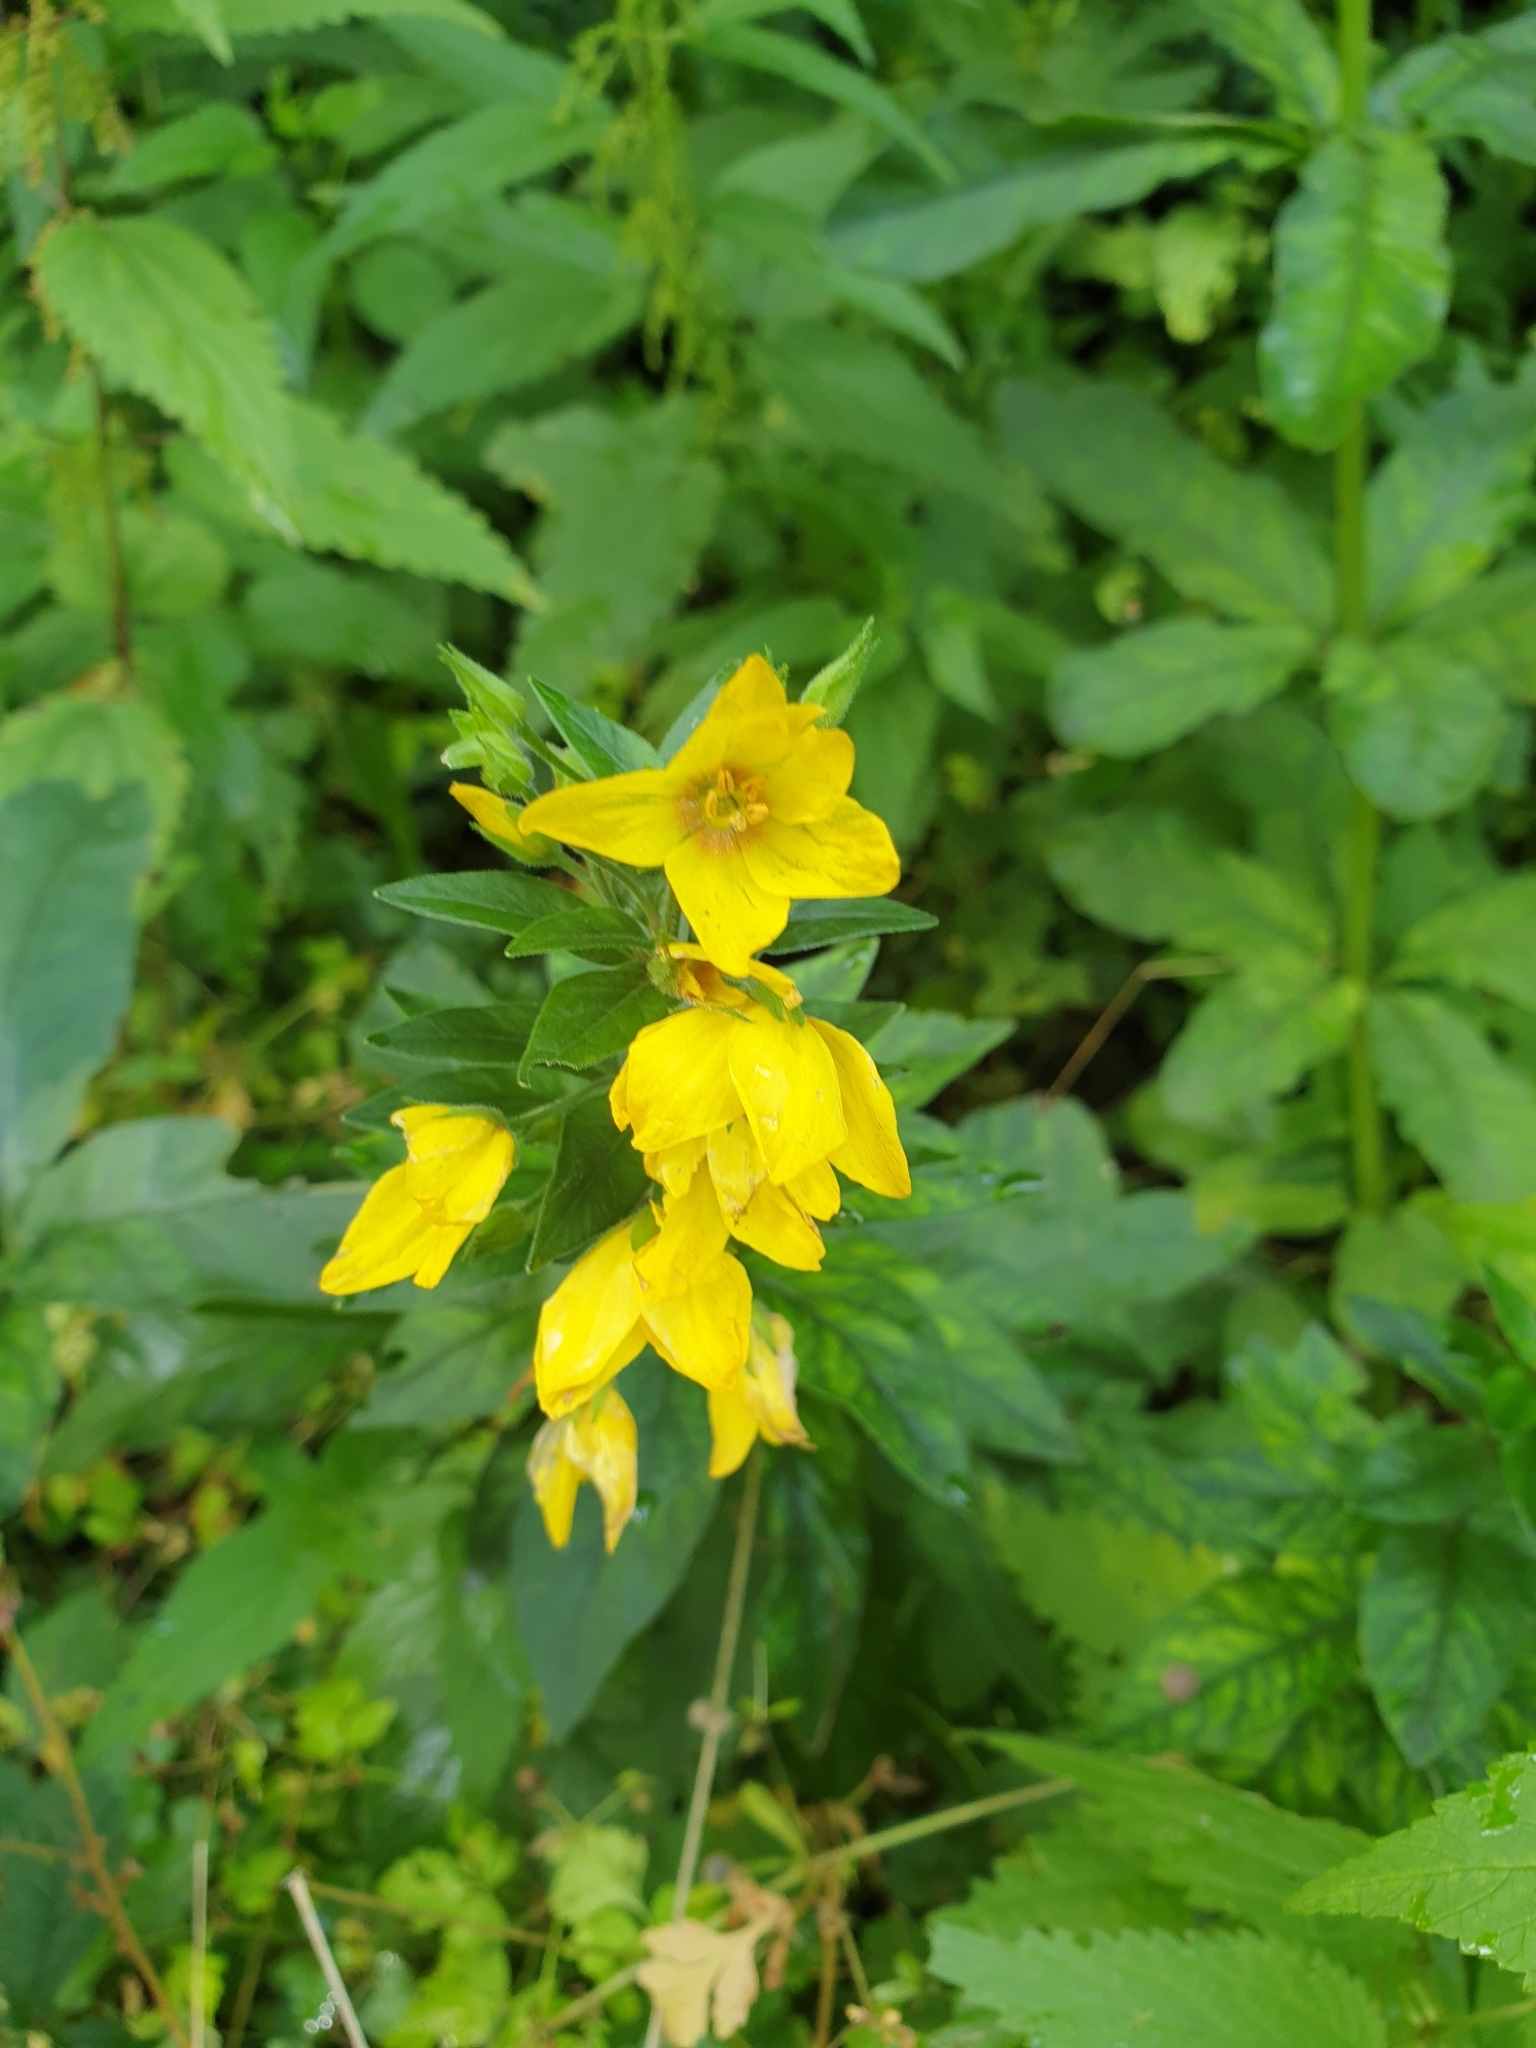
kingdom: Plantae
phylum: Tracheophyta
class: Magnoliopsida
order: Ericales
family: Primulaceae
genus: Lysimachia
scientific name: Lysimachia punctata
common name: Dotted loosestrife
